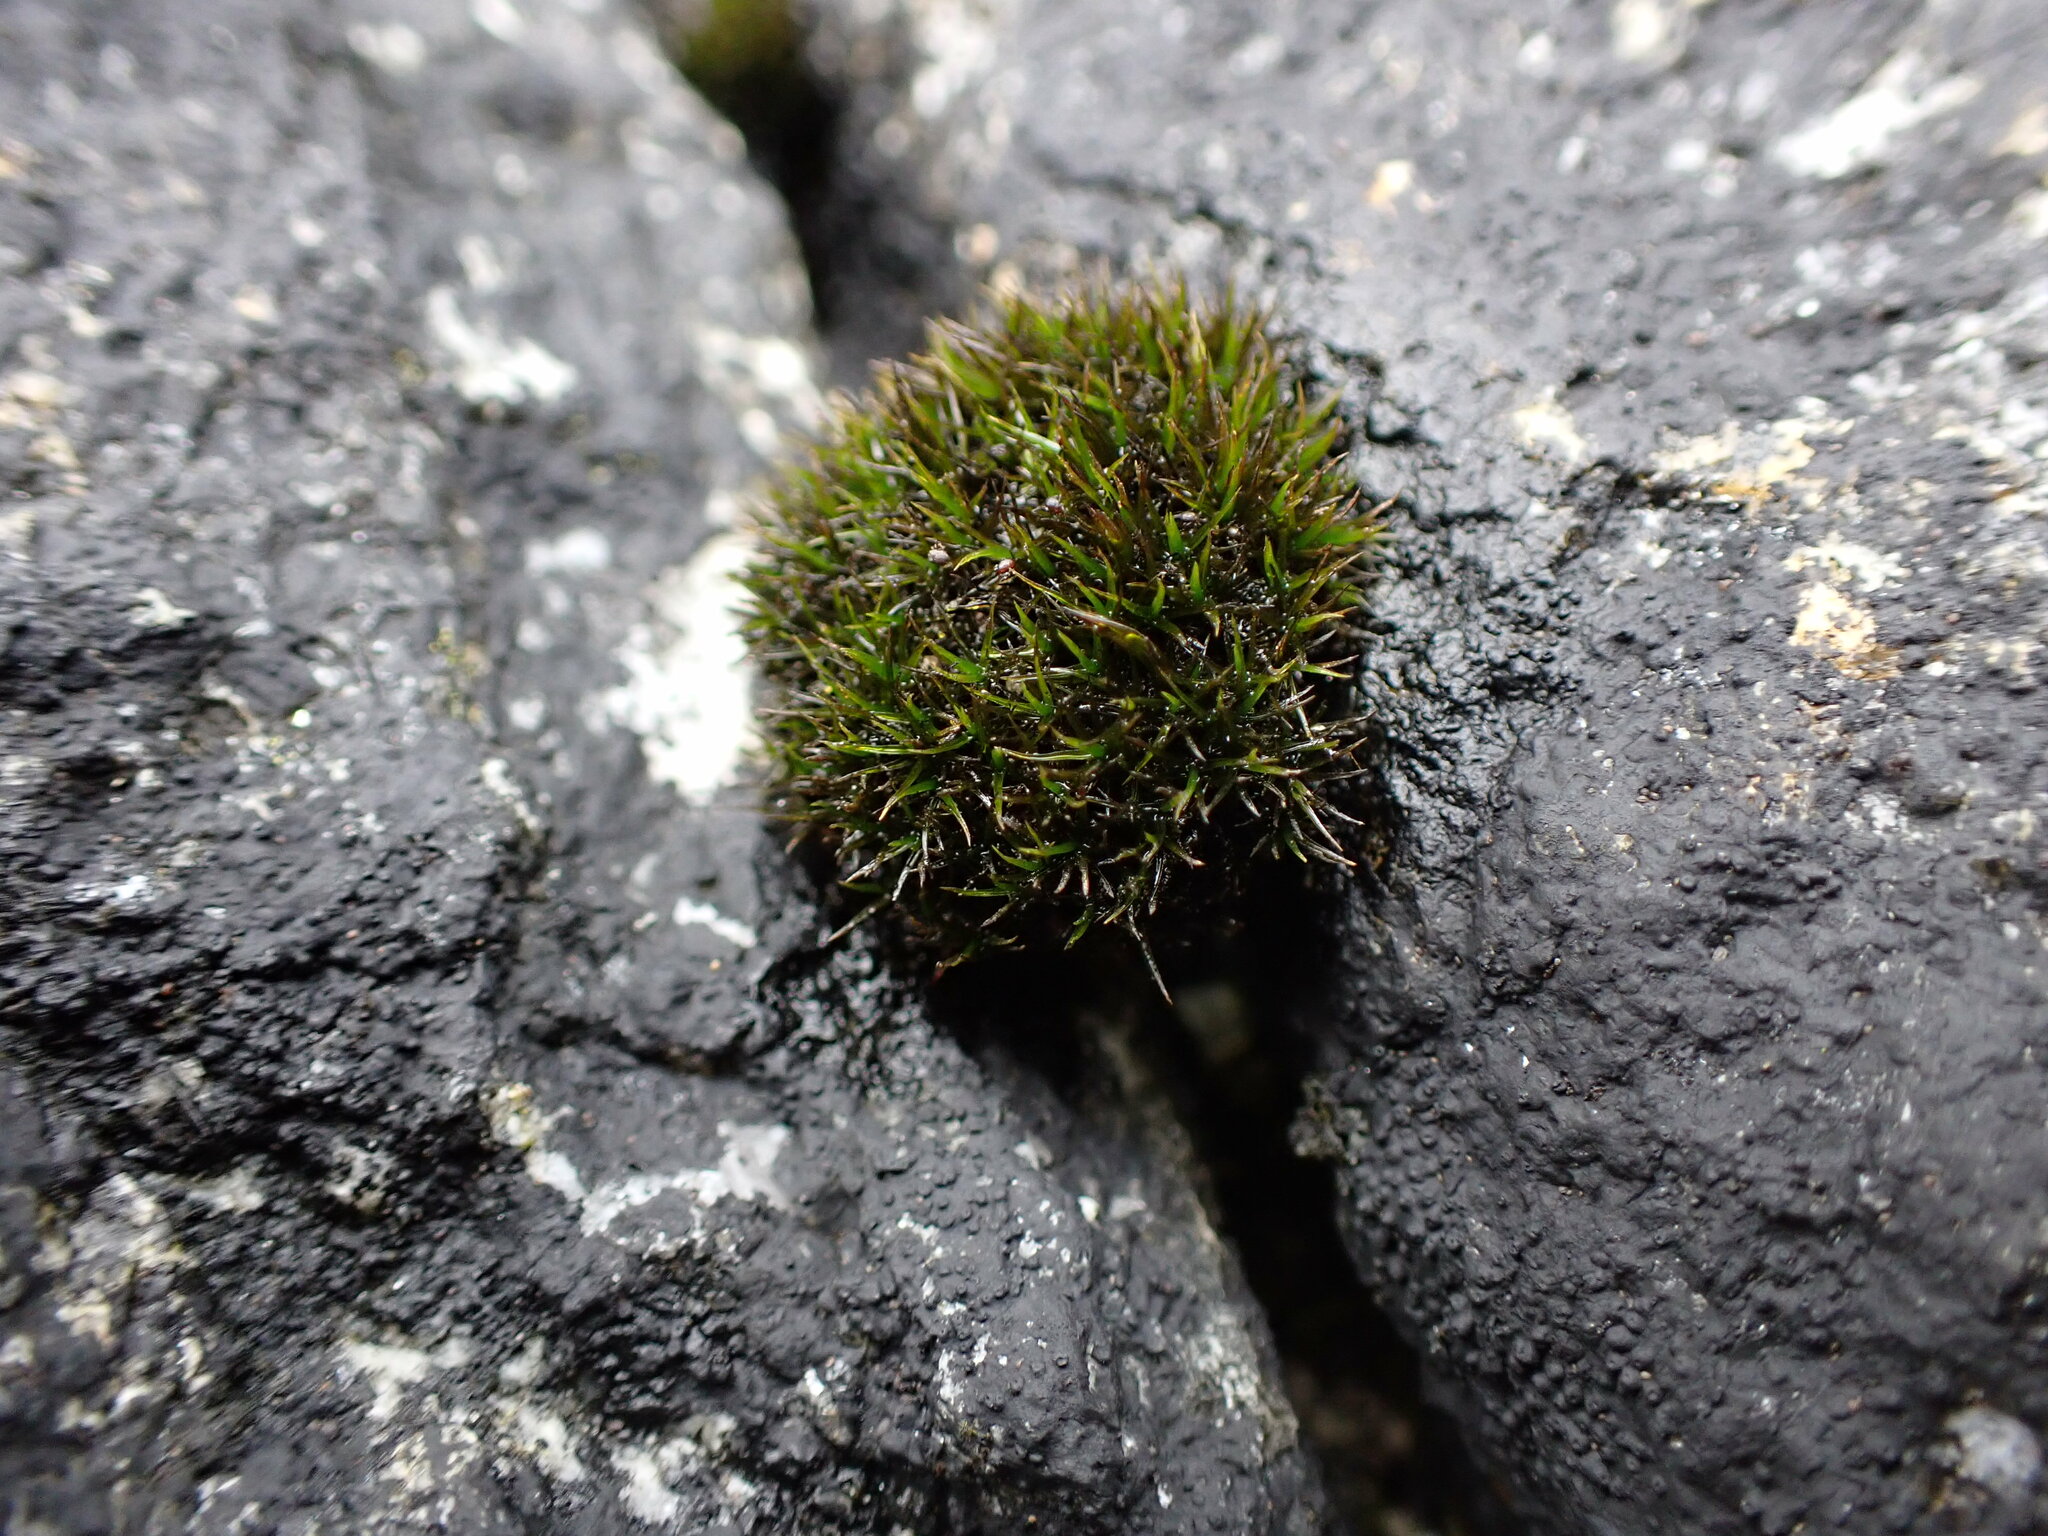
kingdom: Plantae
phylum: Bryophyta
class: Bryopsida
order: Grimmiales
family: Grimmiaceae
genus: Schistidium
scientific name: Schistidium maritimum
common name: Seaside bloom moss
